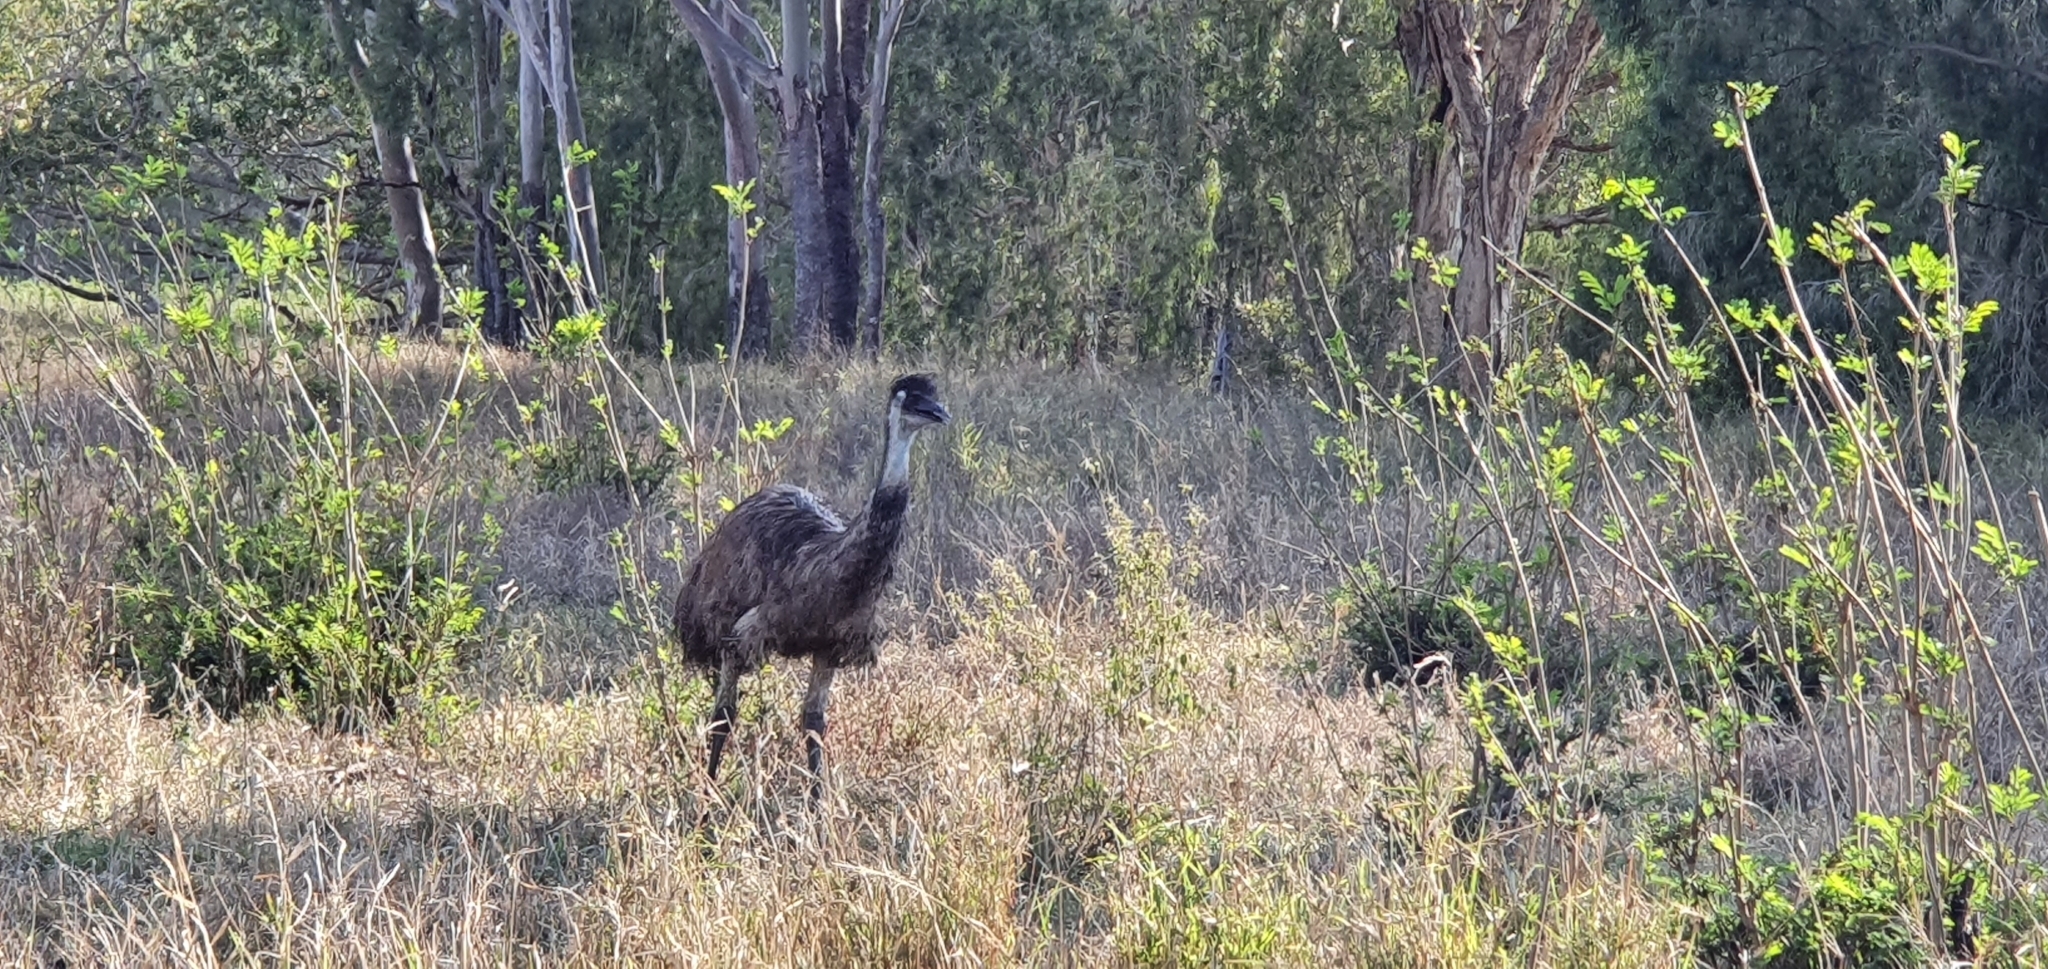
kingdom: Animalia
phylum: Chordata
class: Aves
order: Casuariiformes
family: Dromaiidae
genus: Dromaius
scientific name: Dromaius novaehollandiae
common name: Emu
